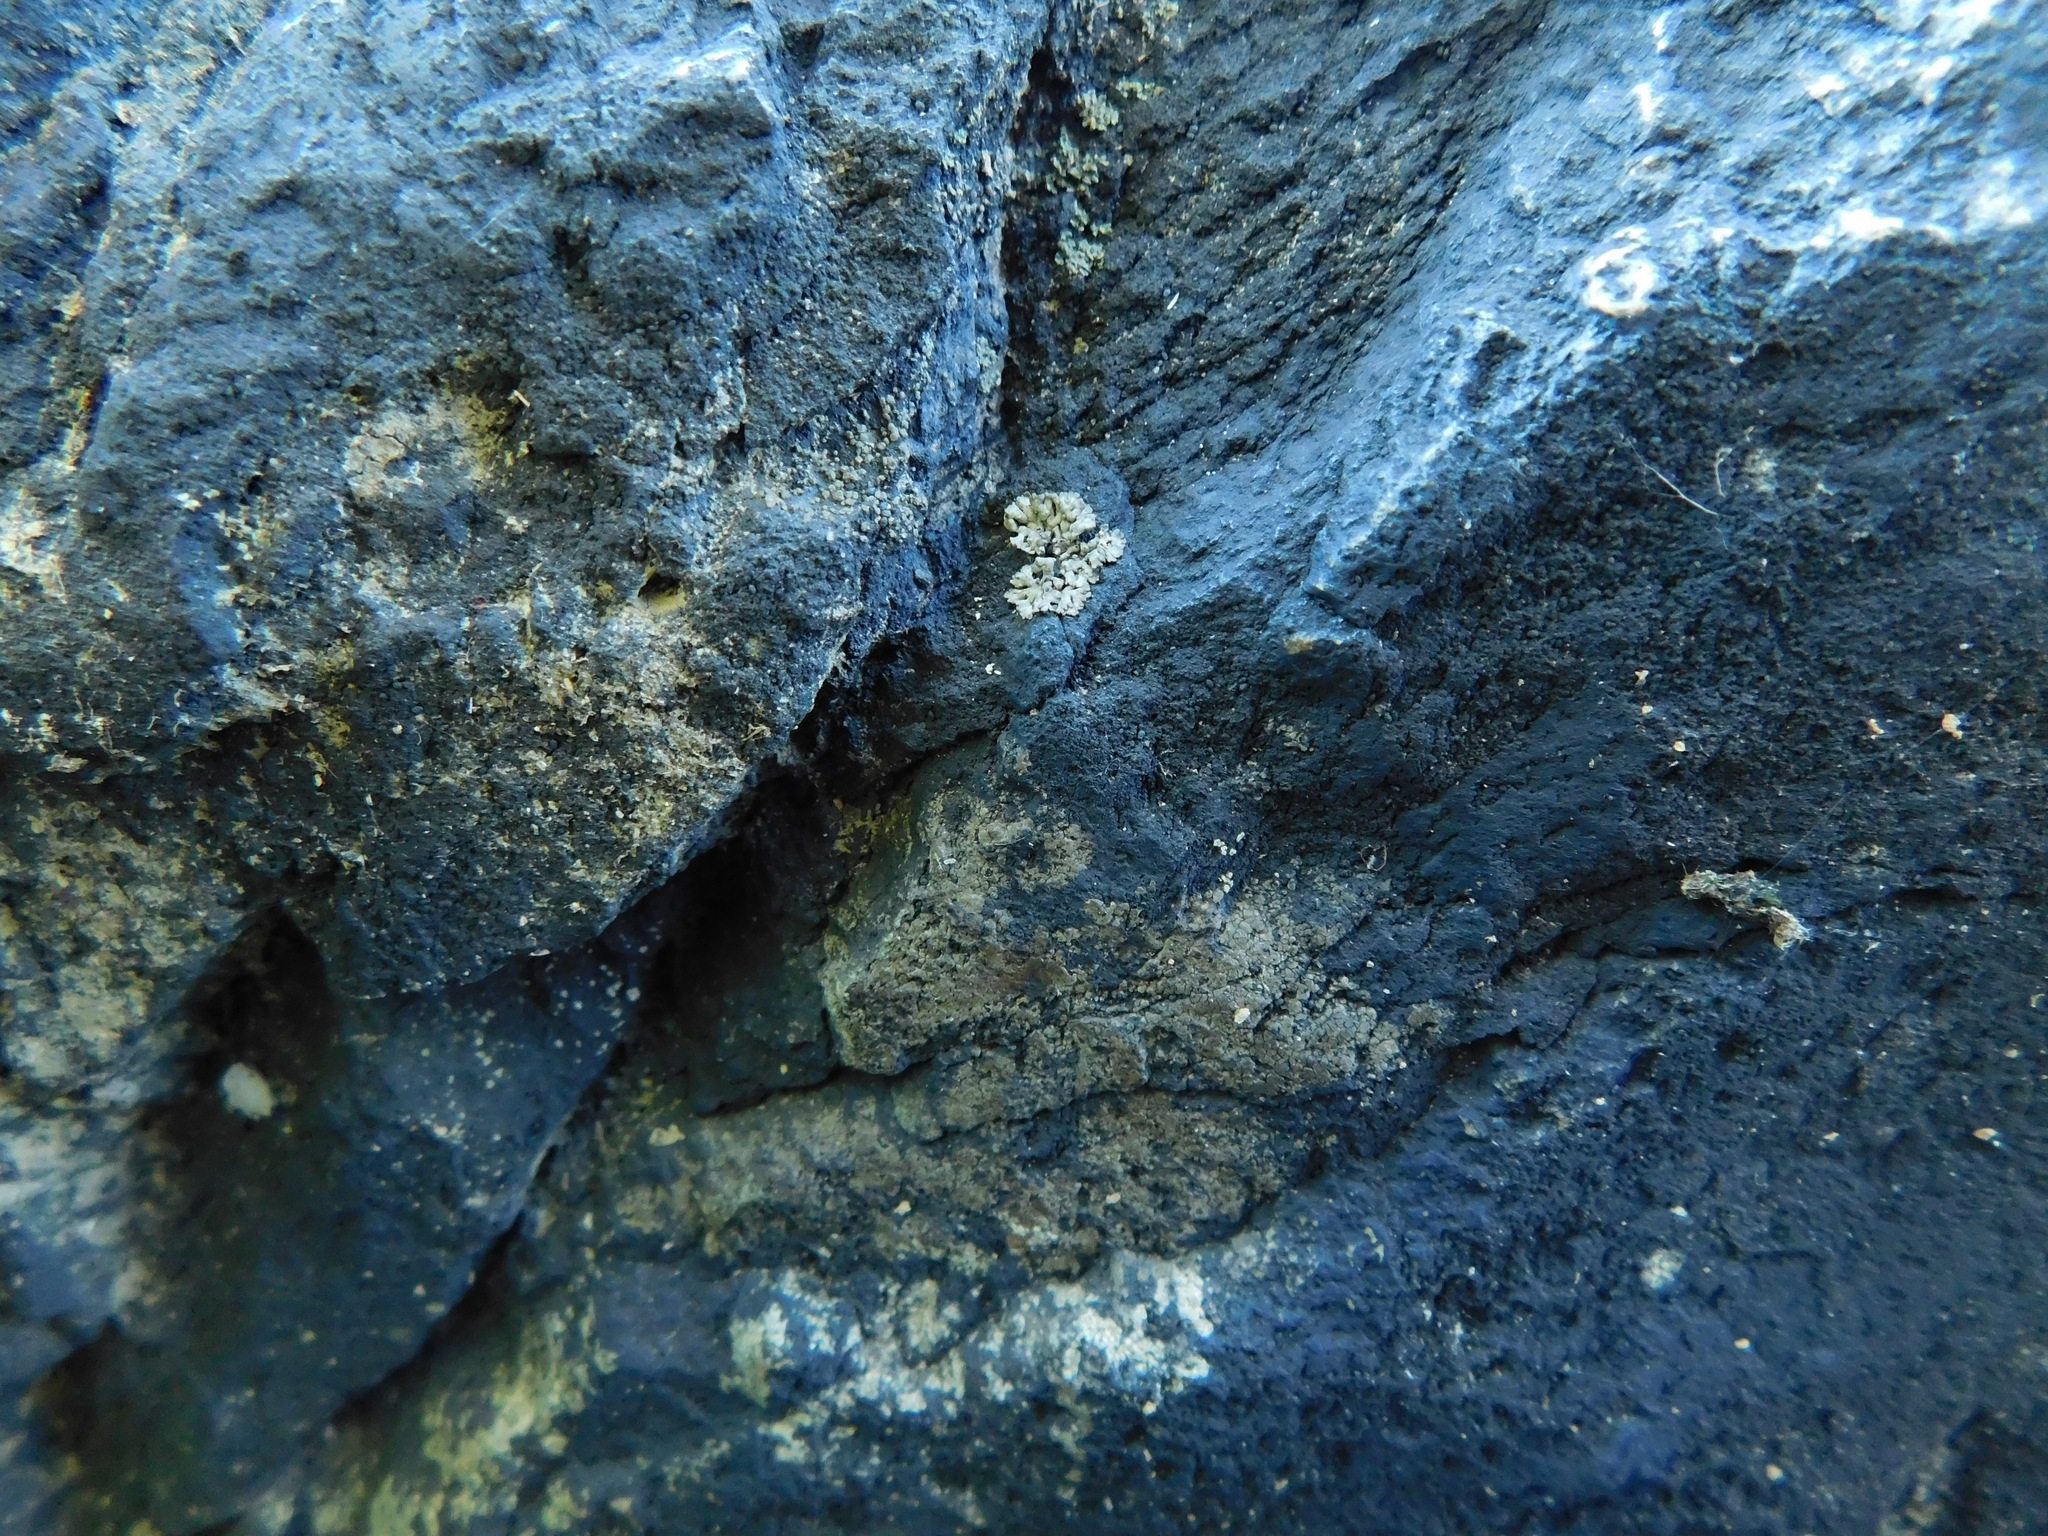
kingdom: Fungi
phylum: Ascomycota
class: Eurotiomycetes
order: Verrucariales
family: Verrucariaceae
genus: Endocarpon
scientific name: Endocarpon pallidulum
